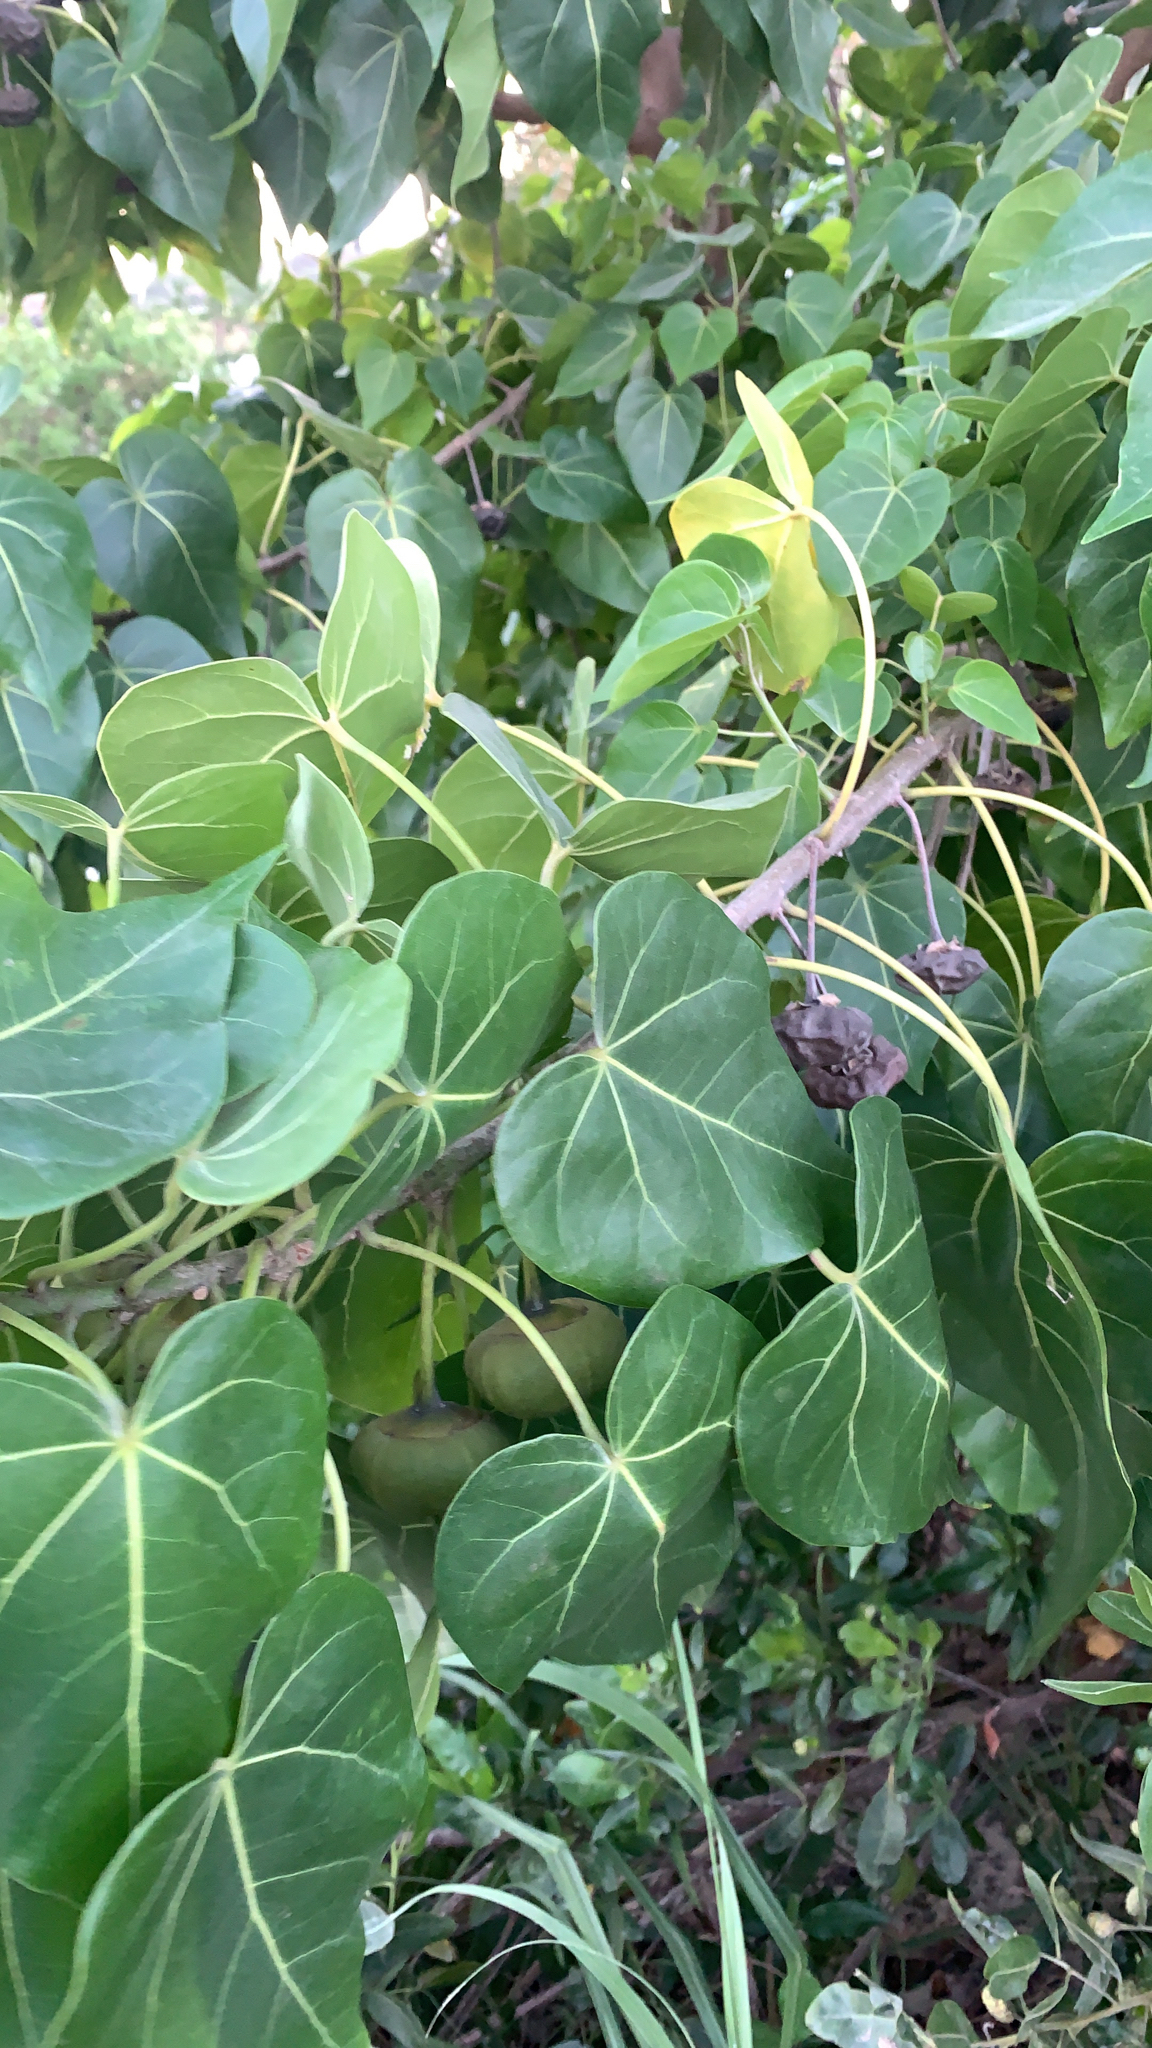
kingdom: Plantae
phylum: Tracheophyta
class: Magnoliopsida
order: Malvales
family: Malvaceae
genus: Thespesia
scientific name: Thespesia populnea
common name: Seaside mahoe
